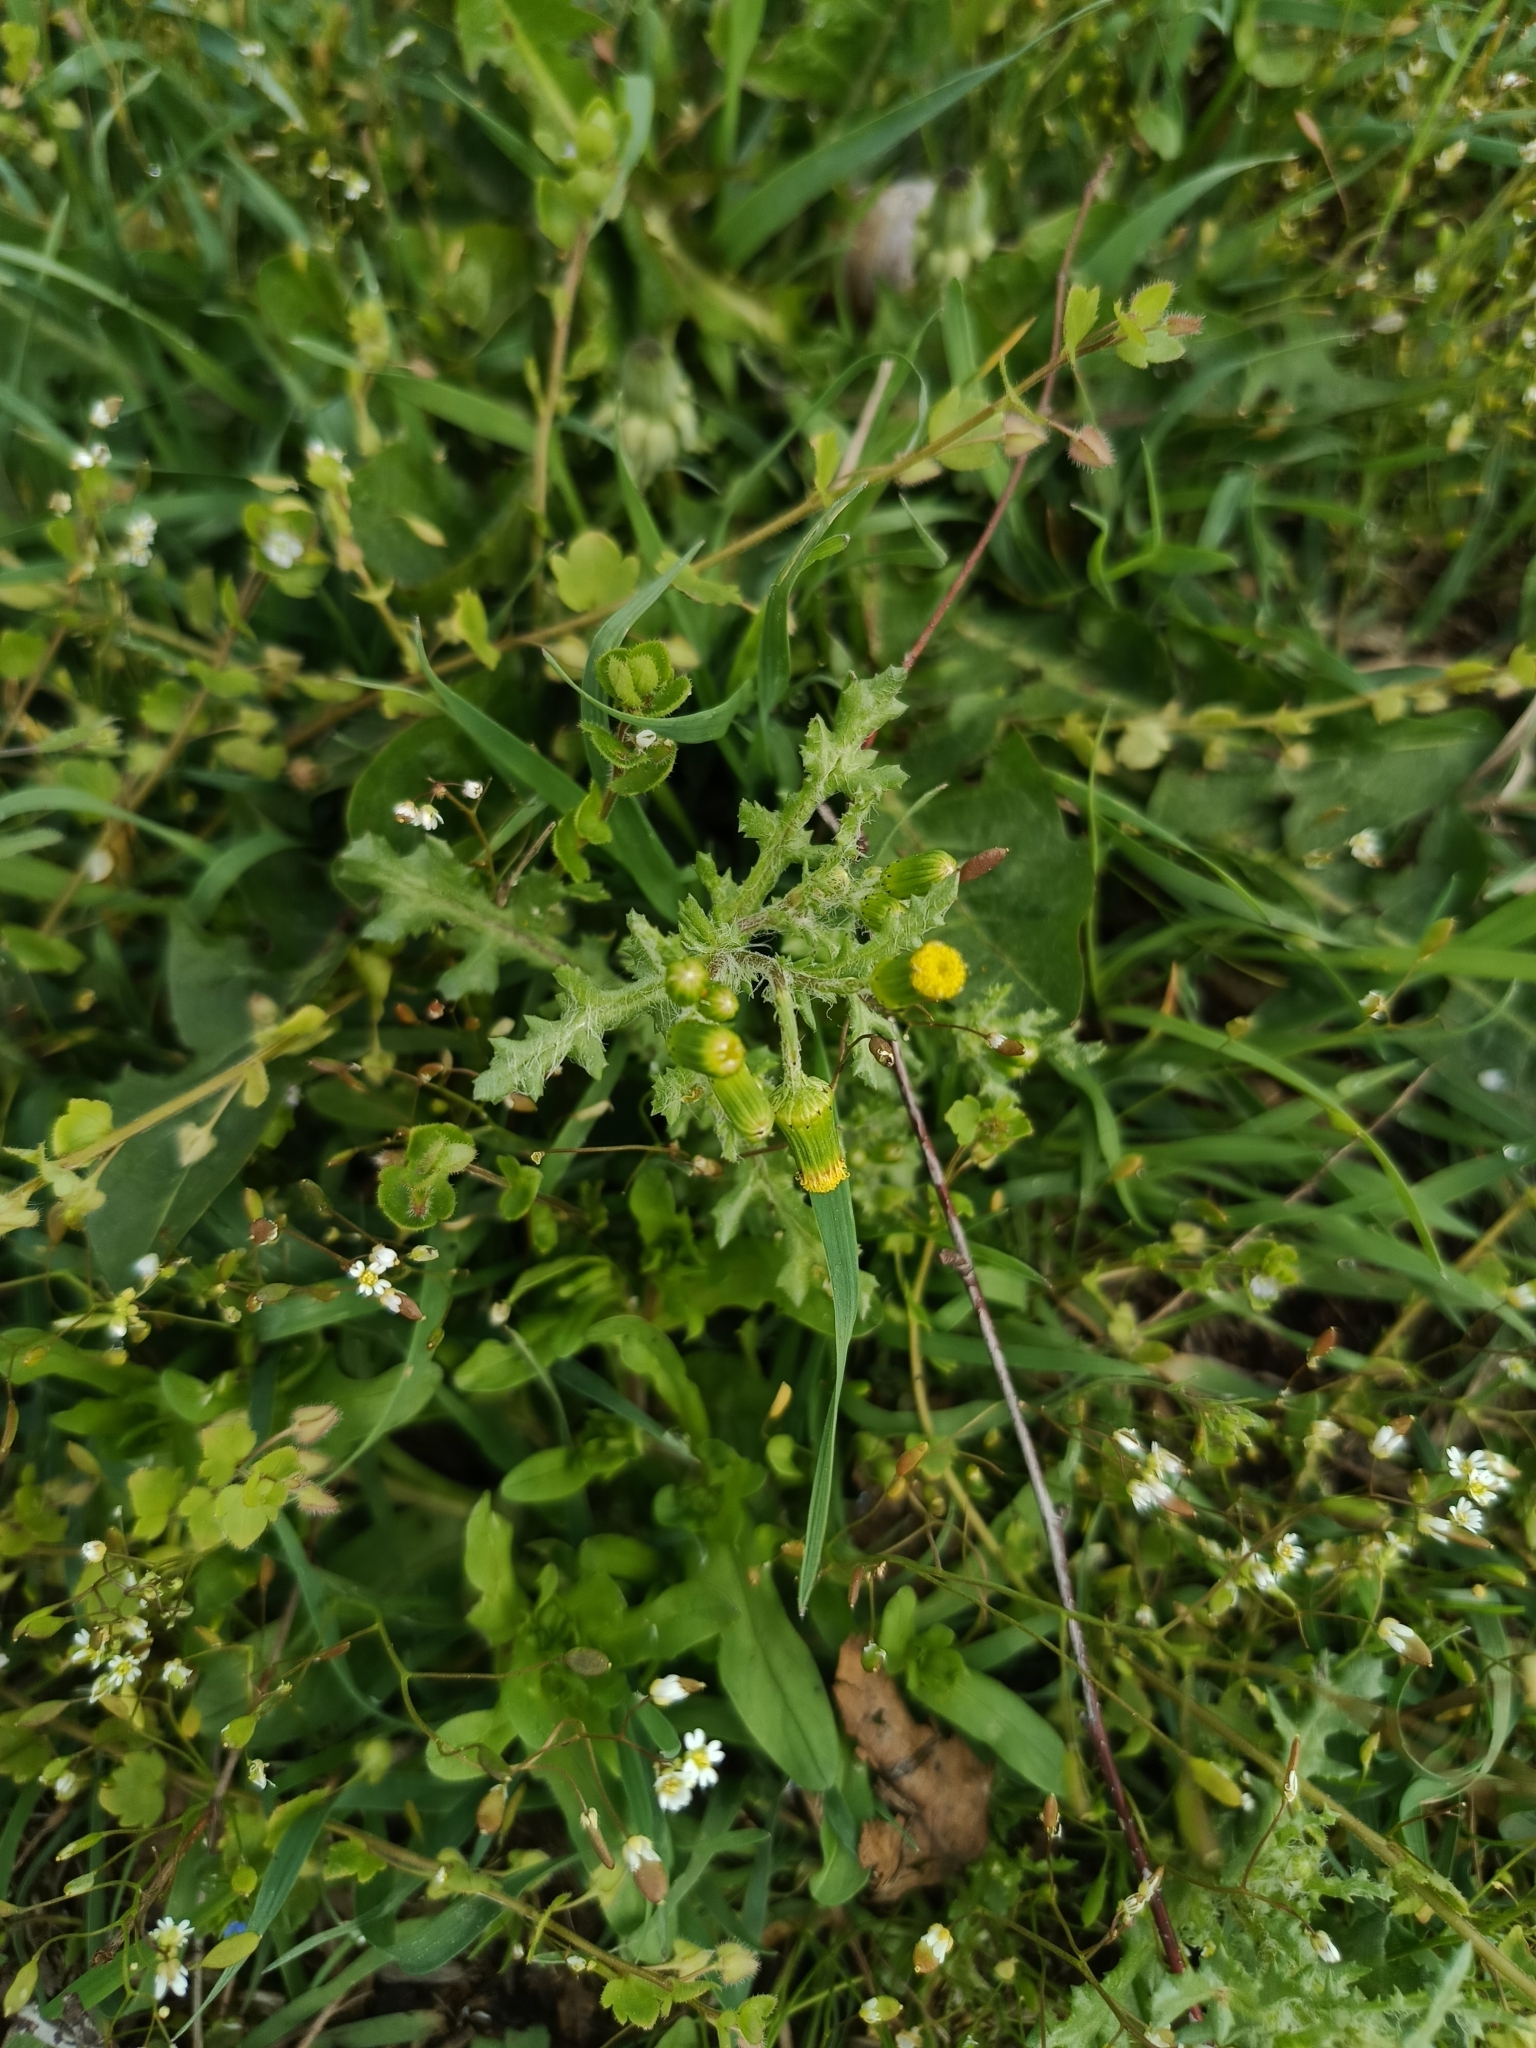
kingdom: Plantae
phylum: Tracheophyta
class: Magnoliopsida
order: Asterales
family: Asteraceae
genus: Senecio
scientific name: Senecio vulgaris
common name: Old-man-in-the-spring
